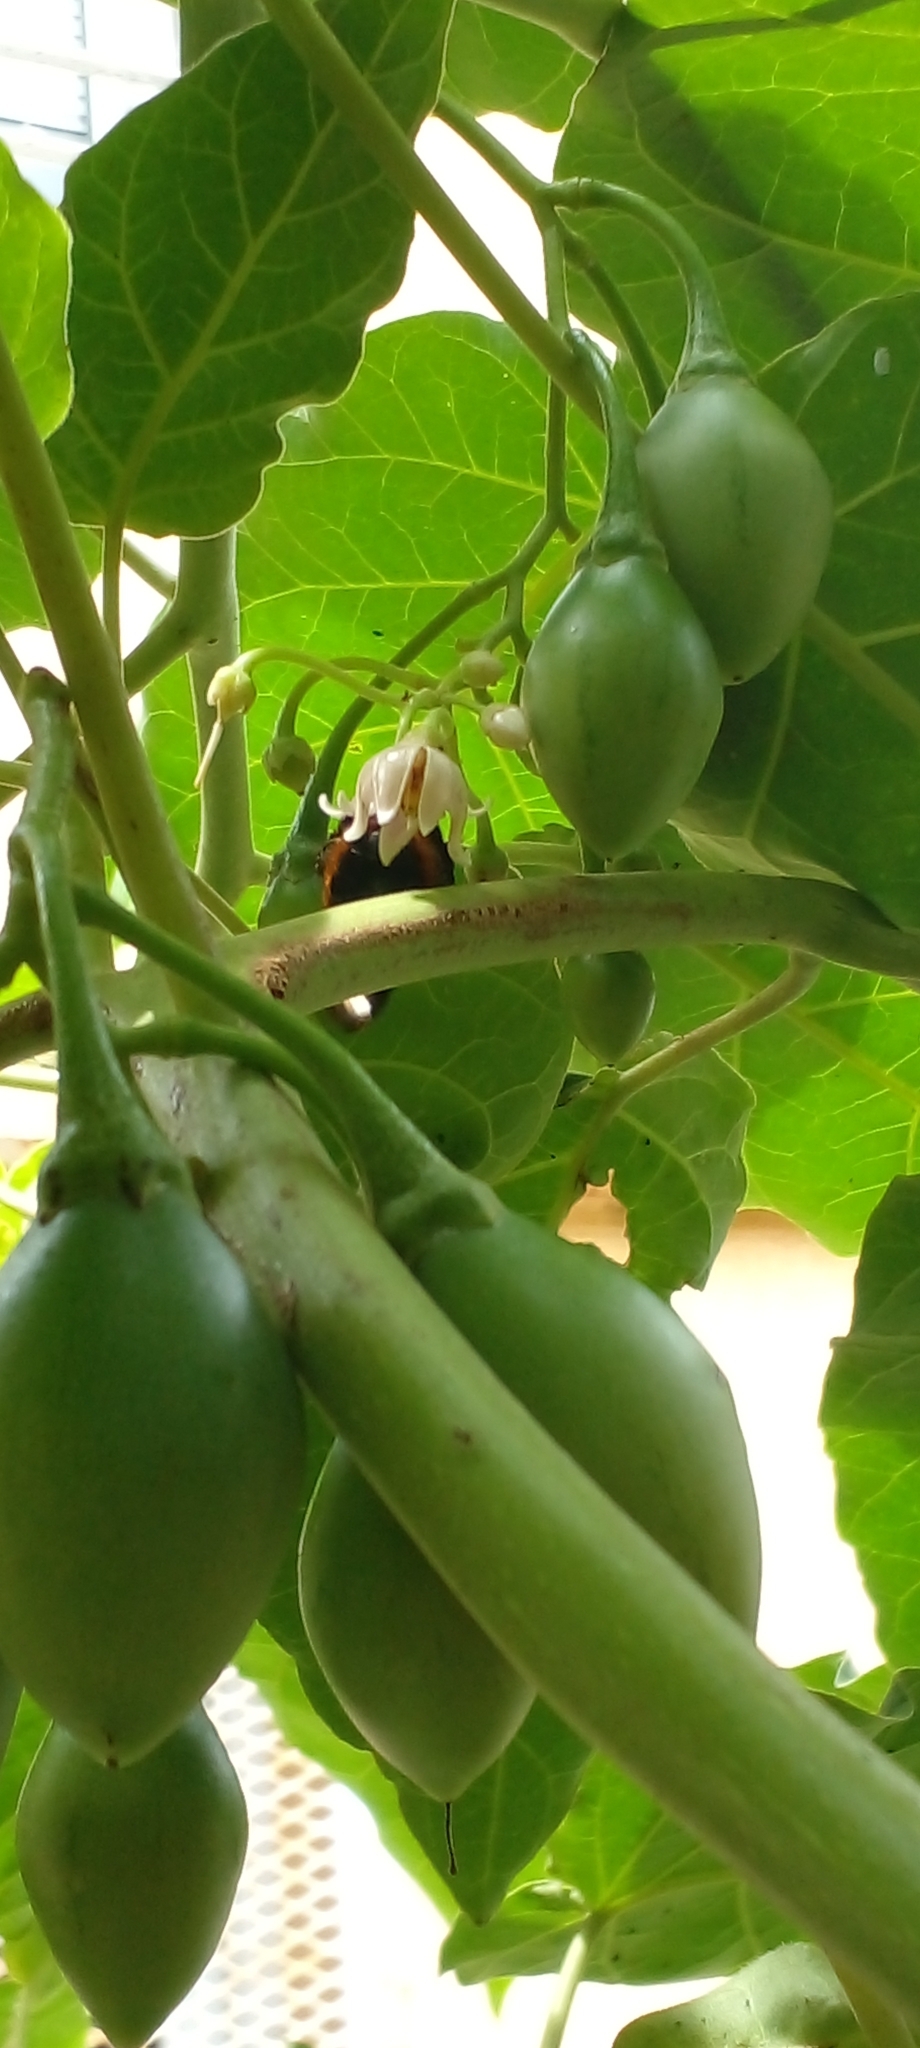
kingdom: Animalia
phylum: Arthropoda
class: Insecta
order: Hymenoptera
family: Apidae
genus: Xylocopa
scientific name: Xylocopa augusti
